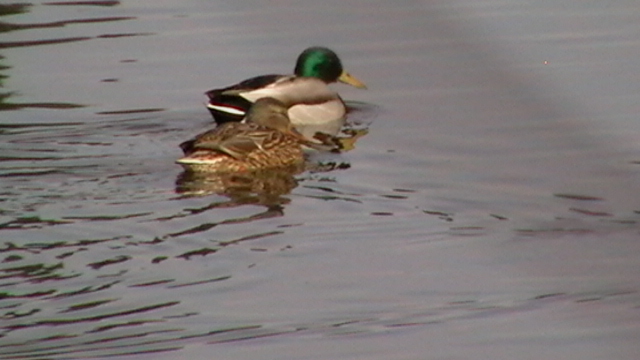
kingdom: Animalia
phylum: Chordata
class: Aves
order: Anseriformes
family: Anatidae
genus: Anas
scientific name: Anas platyrhynchos
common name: Mallard
